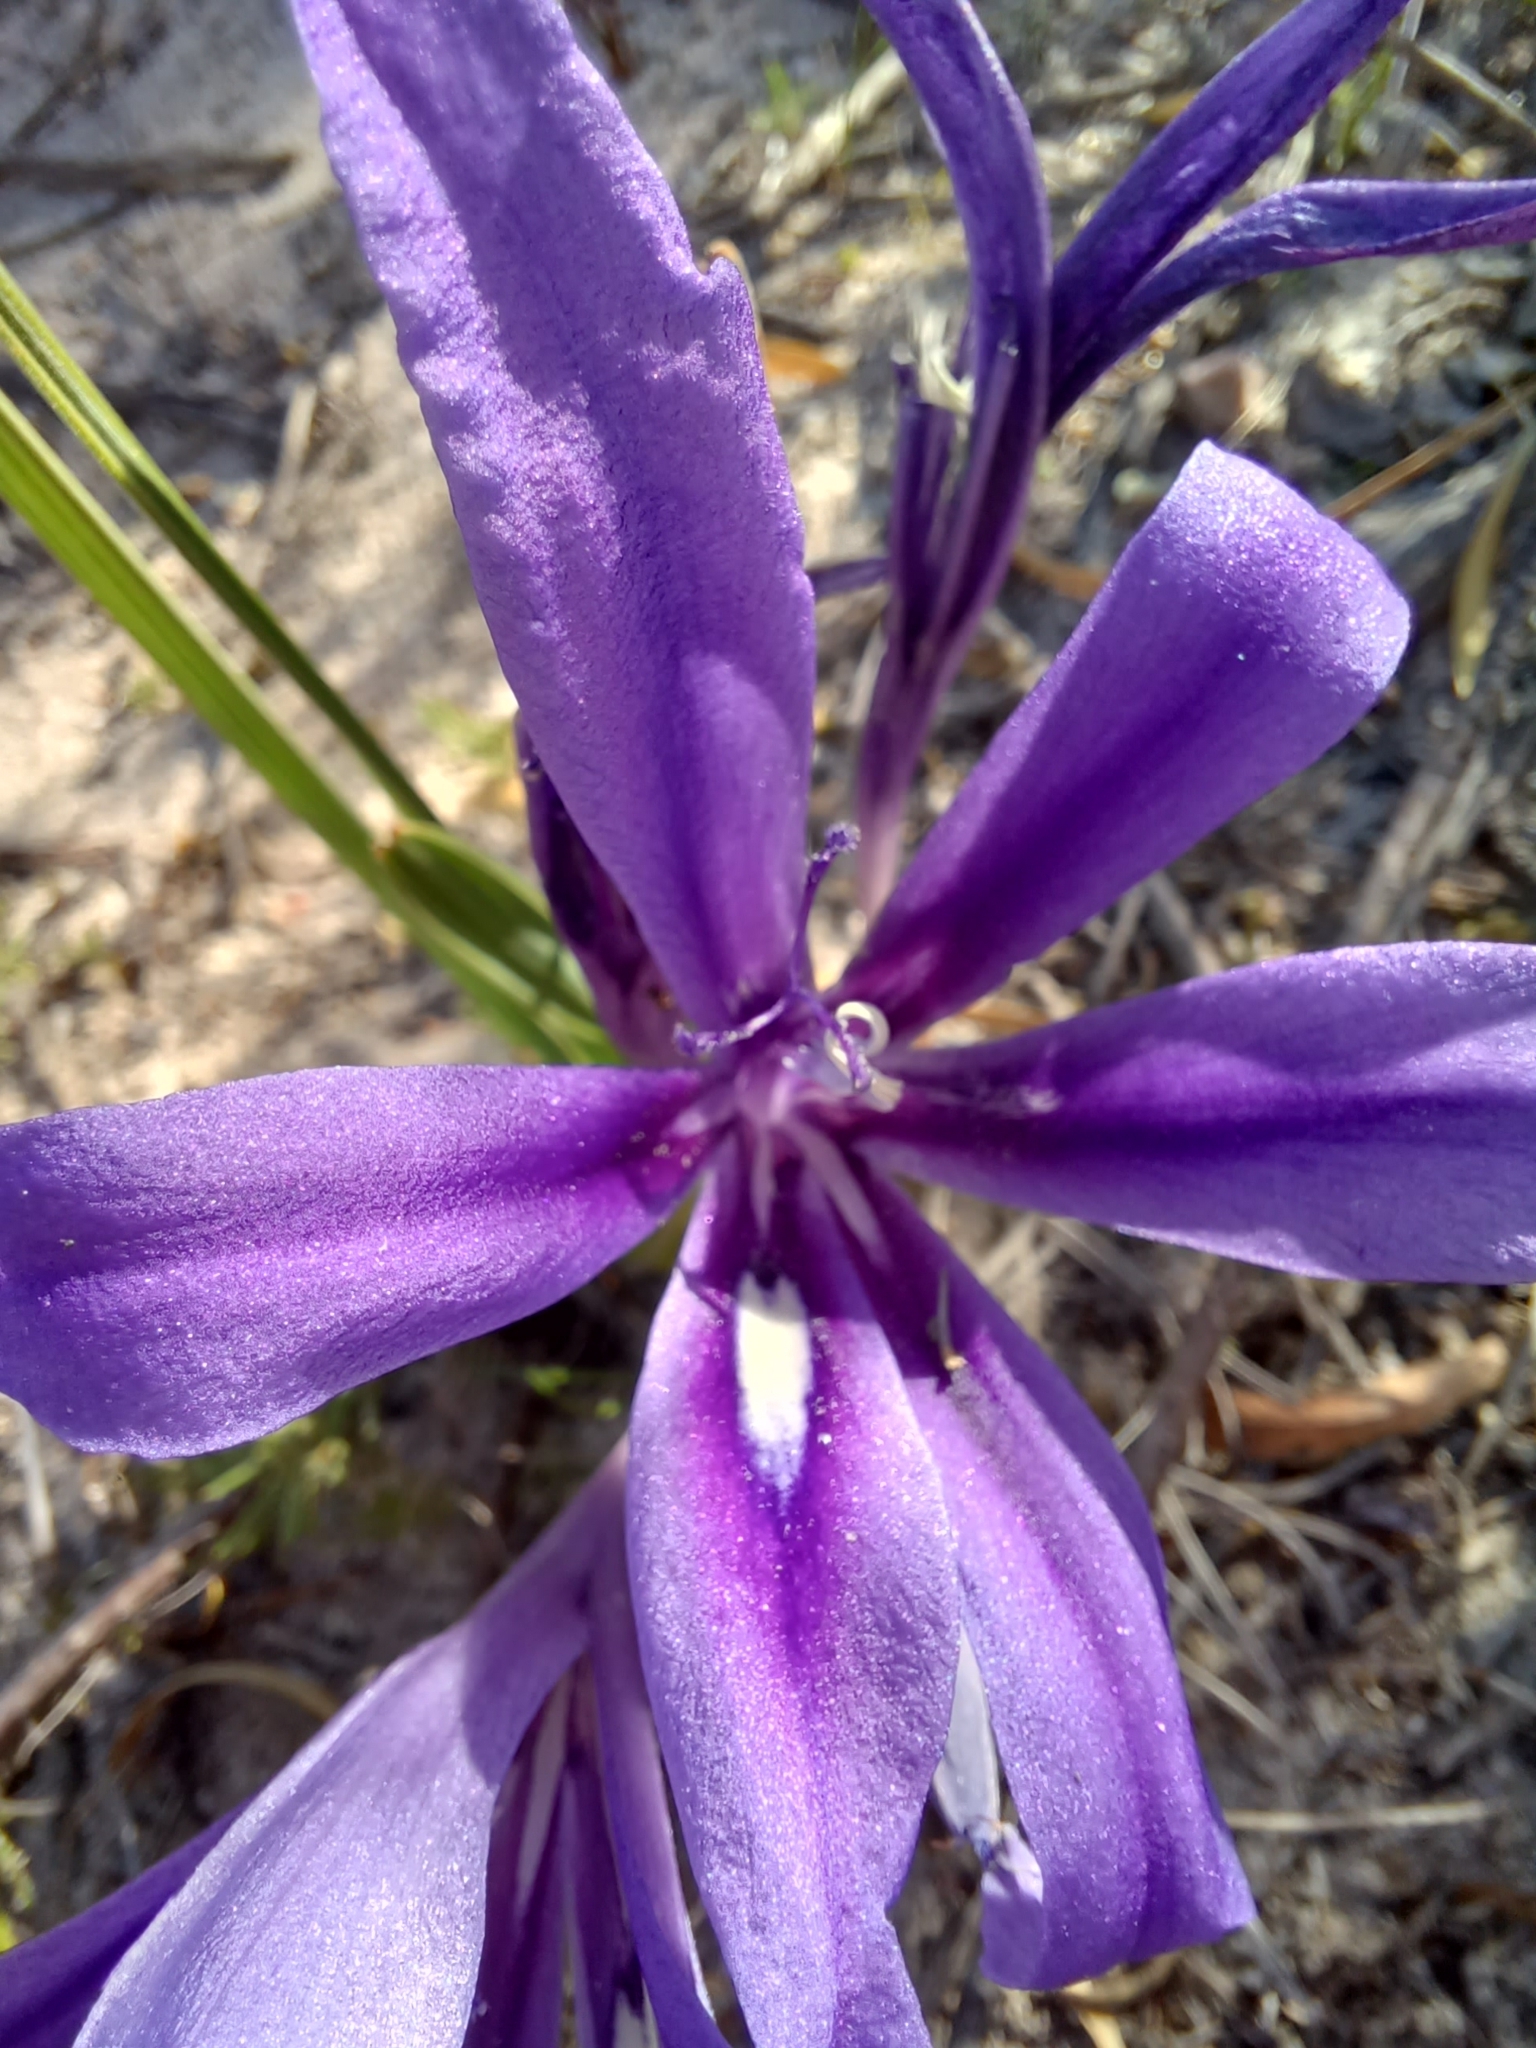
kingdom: Plantae
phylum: Tracheophyta
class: Liliopsida
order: Asparagales
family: Iridaceae
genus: Babiana
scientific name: Babiana sambucina
